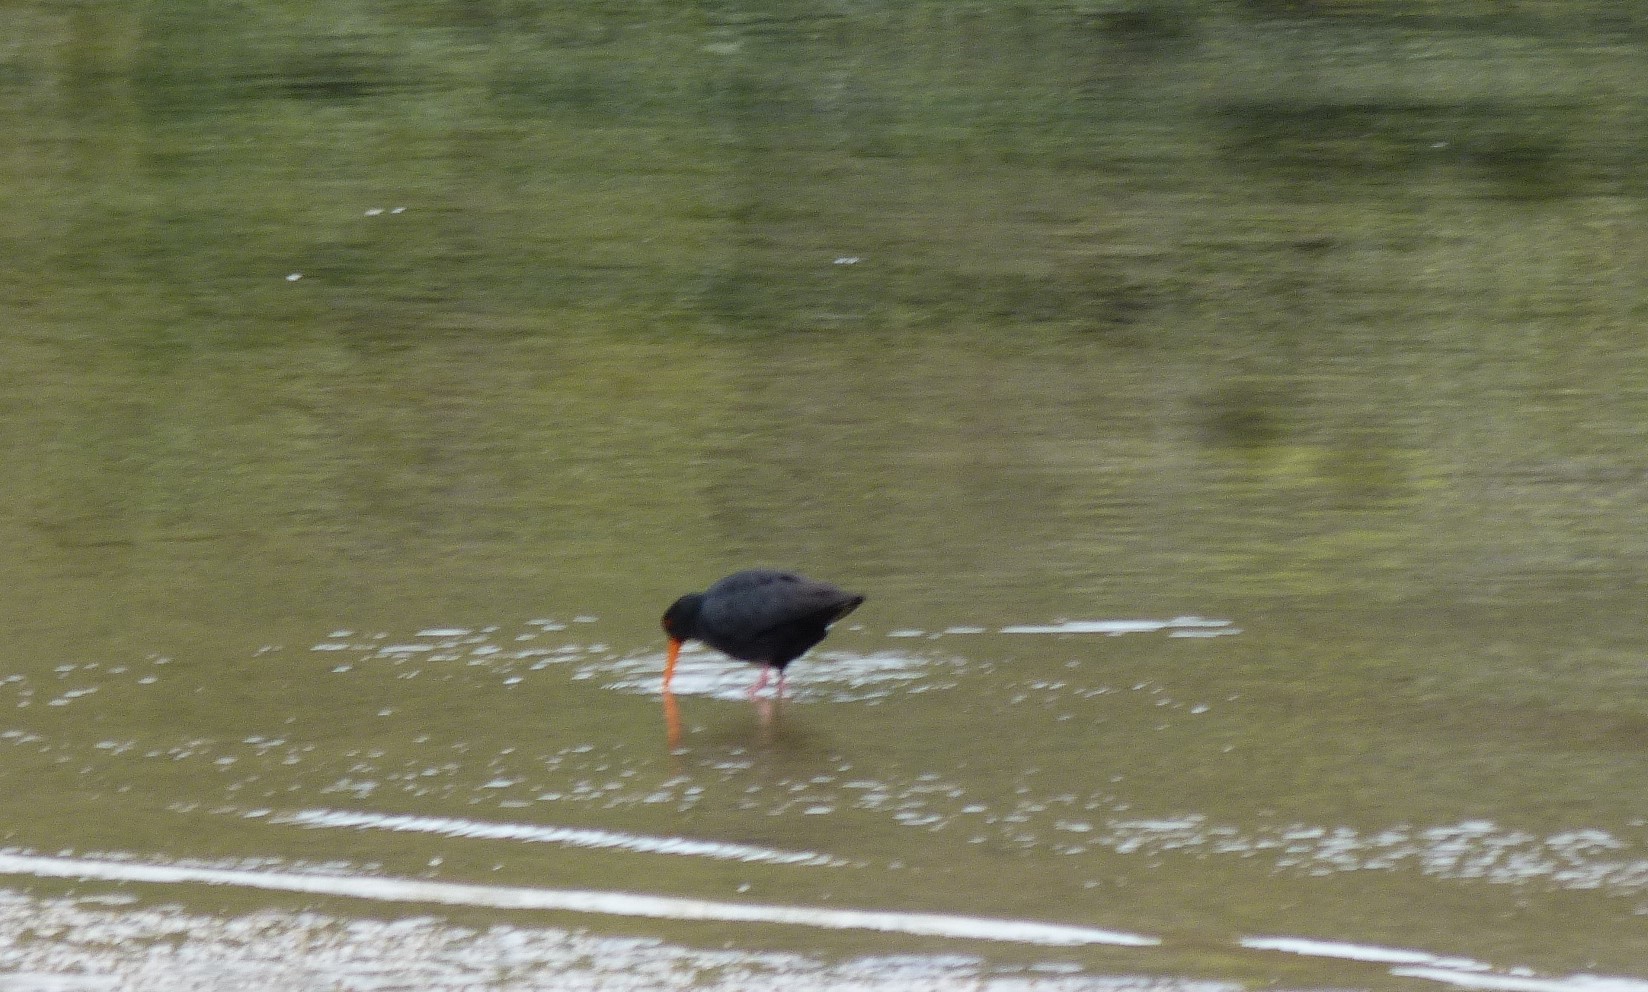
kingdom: Animalia
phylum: Chordata
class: Aves
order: Charadriiformes
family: Haematopodidae
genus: Haematopus
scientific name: Haematopus unicolor
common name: Variable oystercatcher
